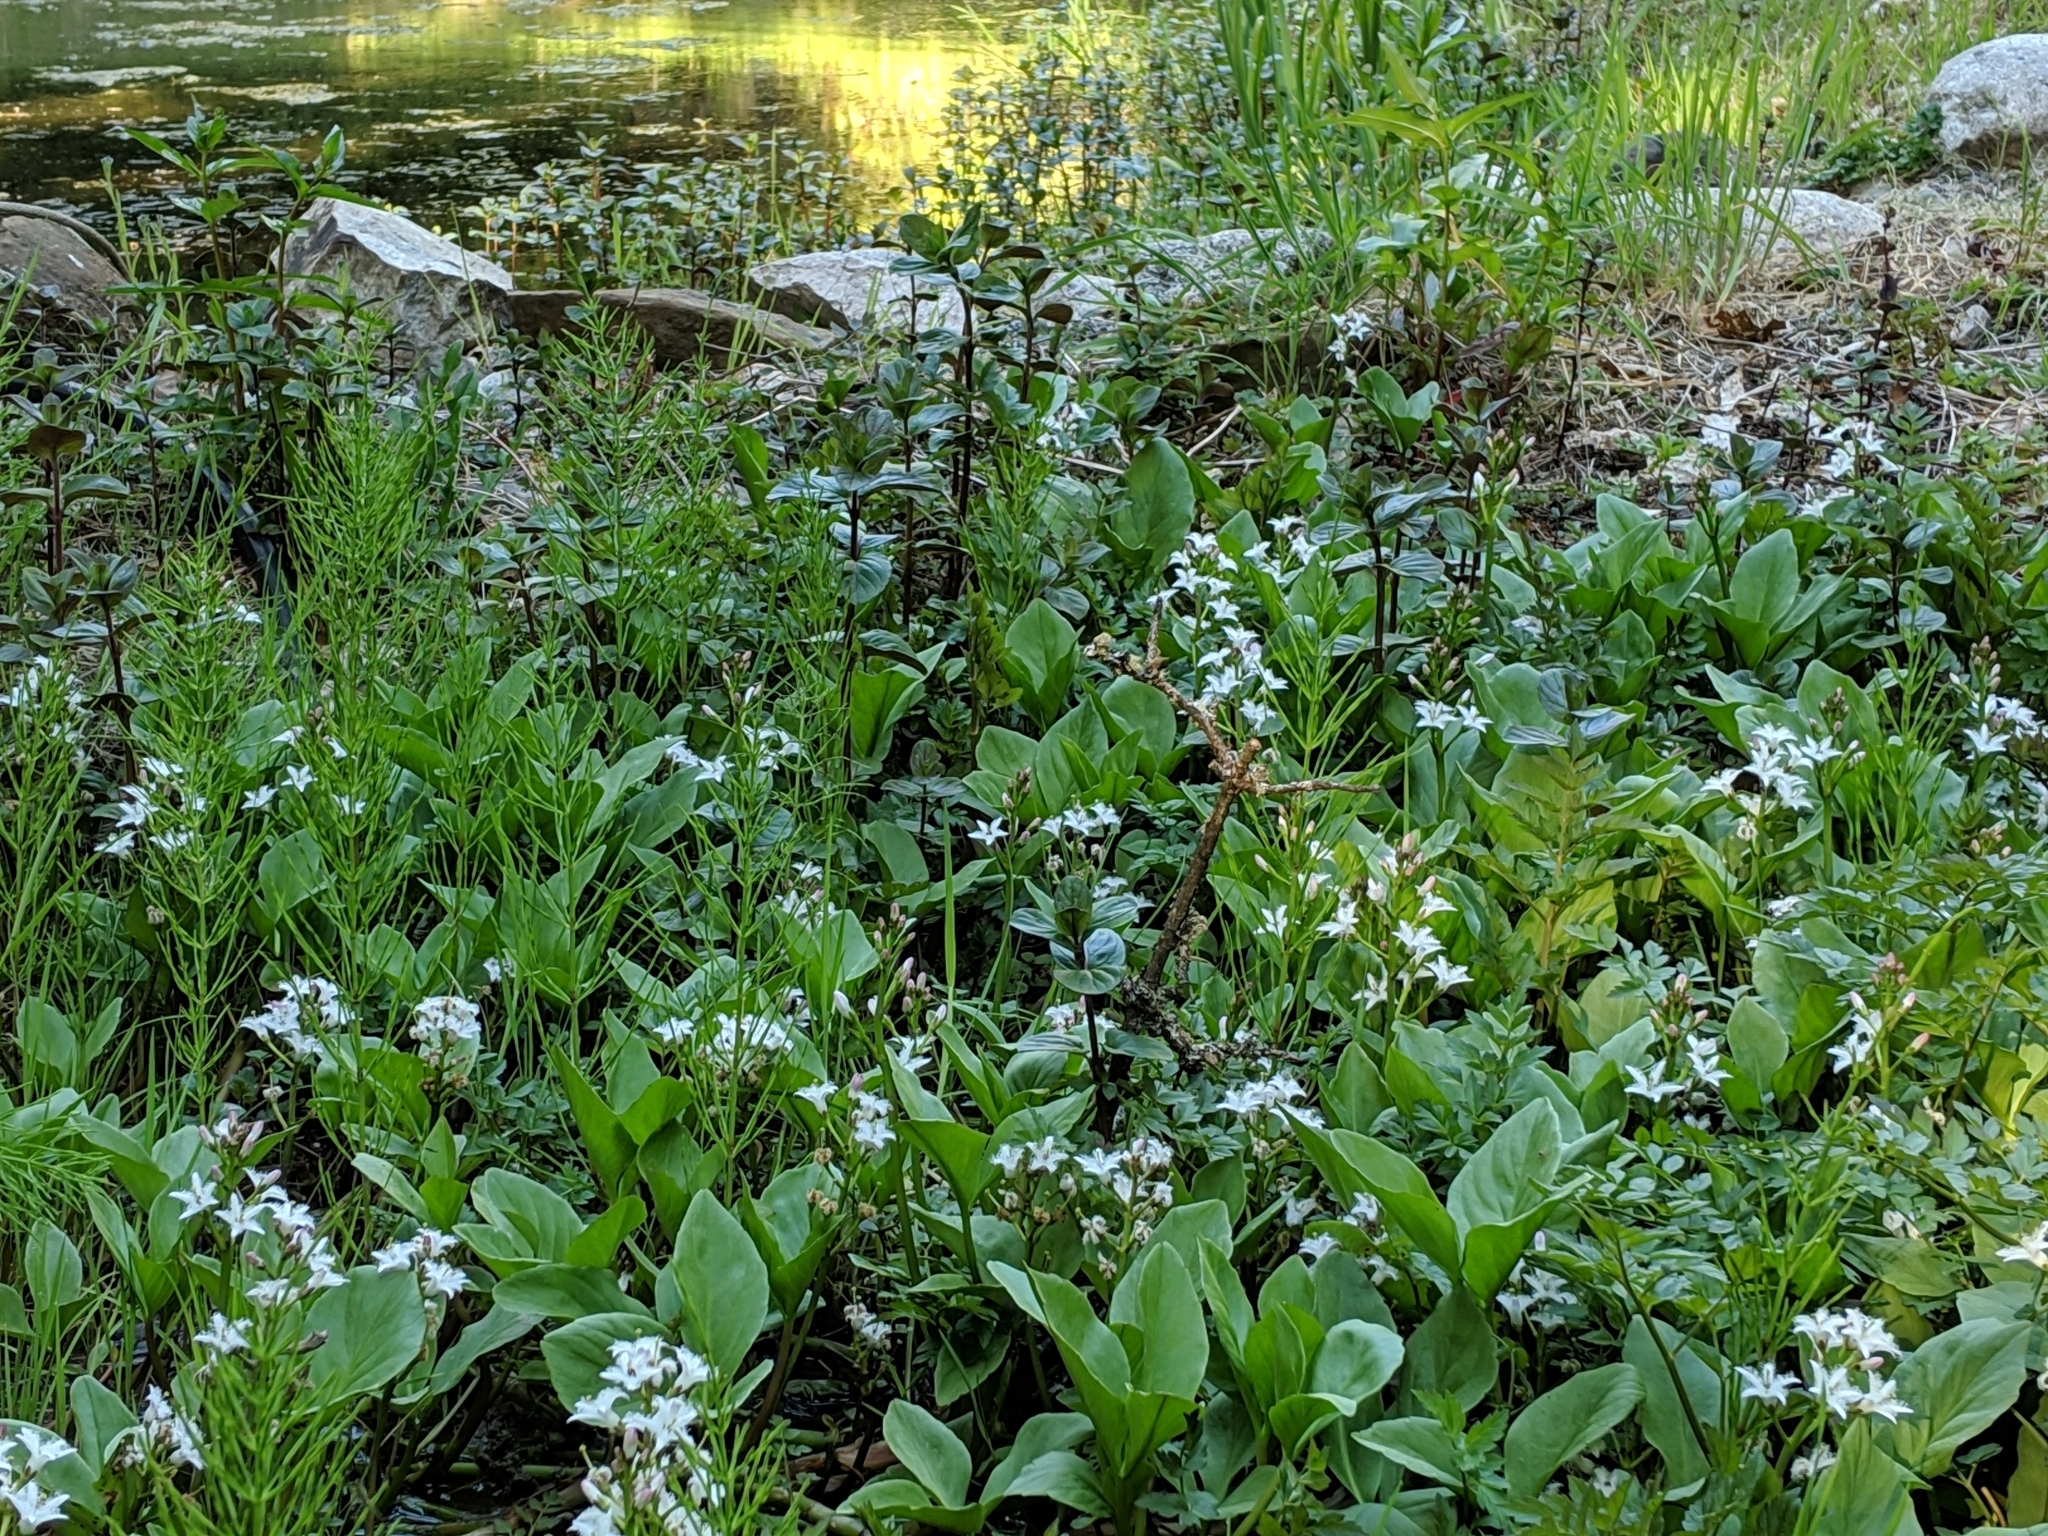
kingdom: Plantae
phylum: Tracheophyta
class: Magnoliopsida
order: Asterales
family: Menyanthaceae
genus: Menyanthes
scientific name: Menyanthes trifoliata
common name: Bogbean
